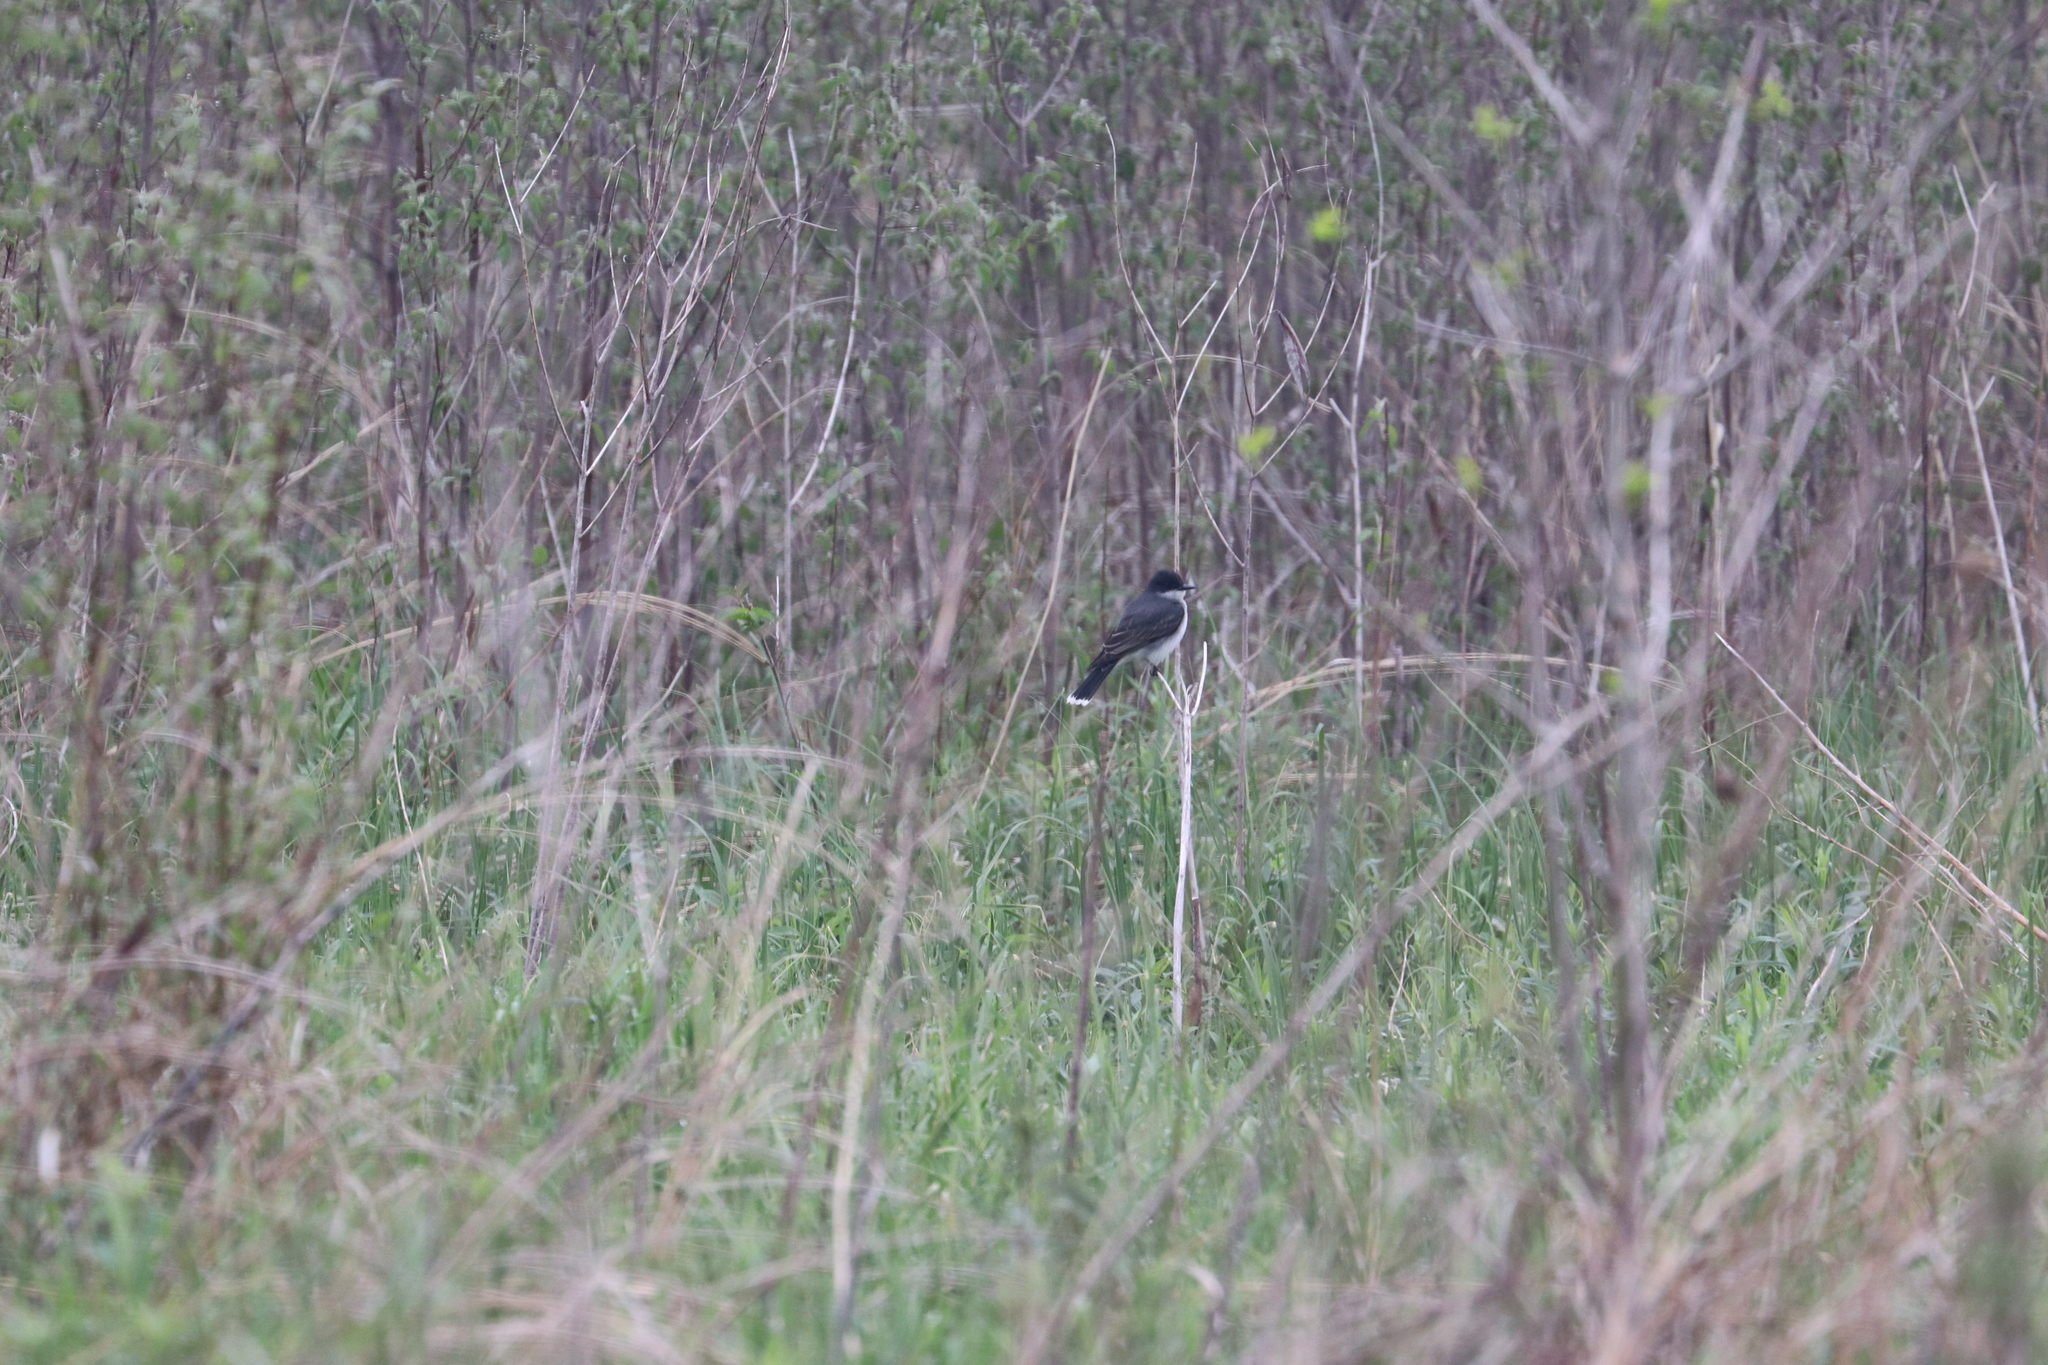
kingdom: Animalia
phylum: Chordata
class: Aves
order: Passeriformes
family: Tyrannidae
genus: Tyrannus
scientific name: Tyrannus tyrannus
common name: Eastern kingbird
